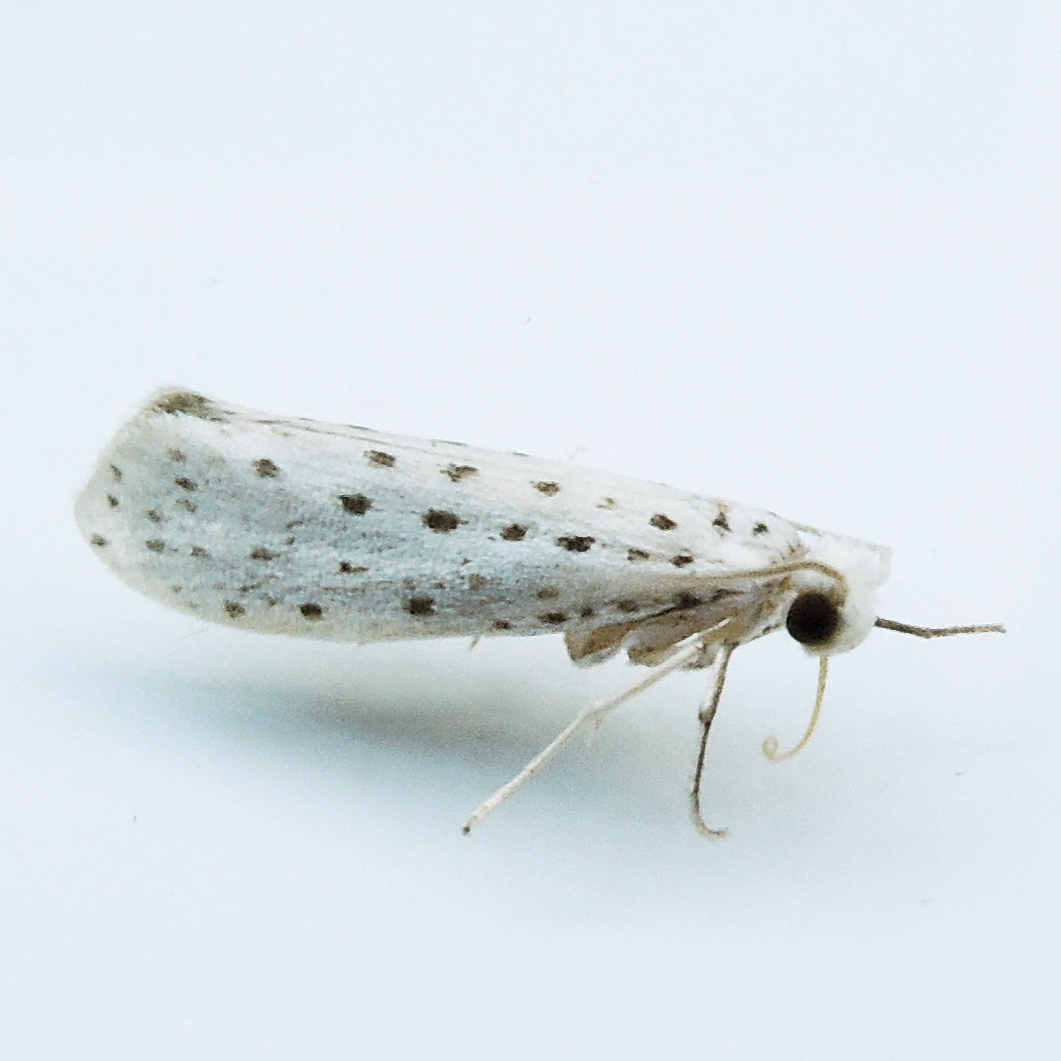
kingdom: Animalia
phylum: Arthropoda
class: Insecta
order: Lepidoptera
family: Yponomeutidae
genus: Yponomeuta
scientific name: Yponomeuta multipunctella
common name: American ermine moth
